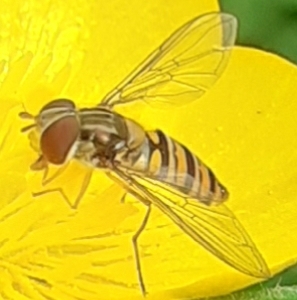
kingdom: Animalia
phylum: Arthropoda
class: Insecta
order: Diptera
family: Syrphidae
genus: Episyrphus
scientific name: Episyrphus balteatus
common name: Marmalade hoverfly
